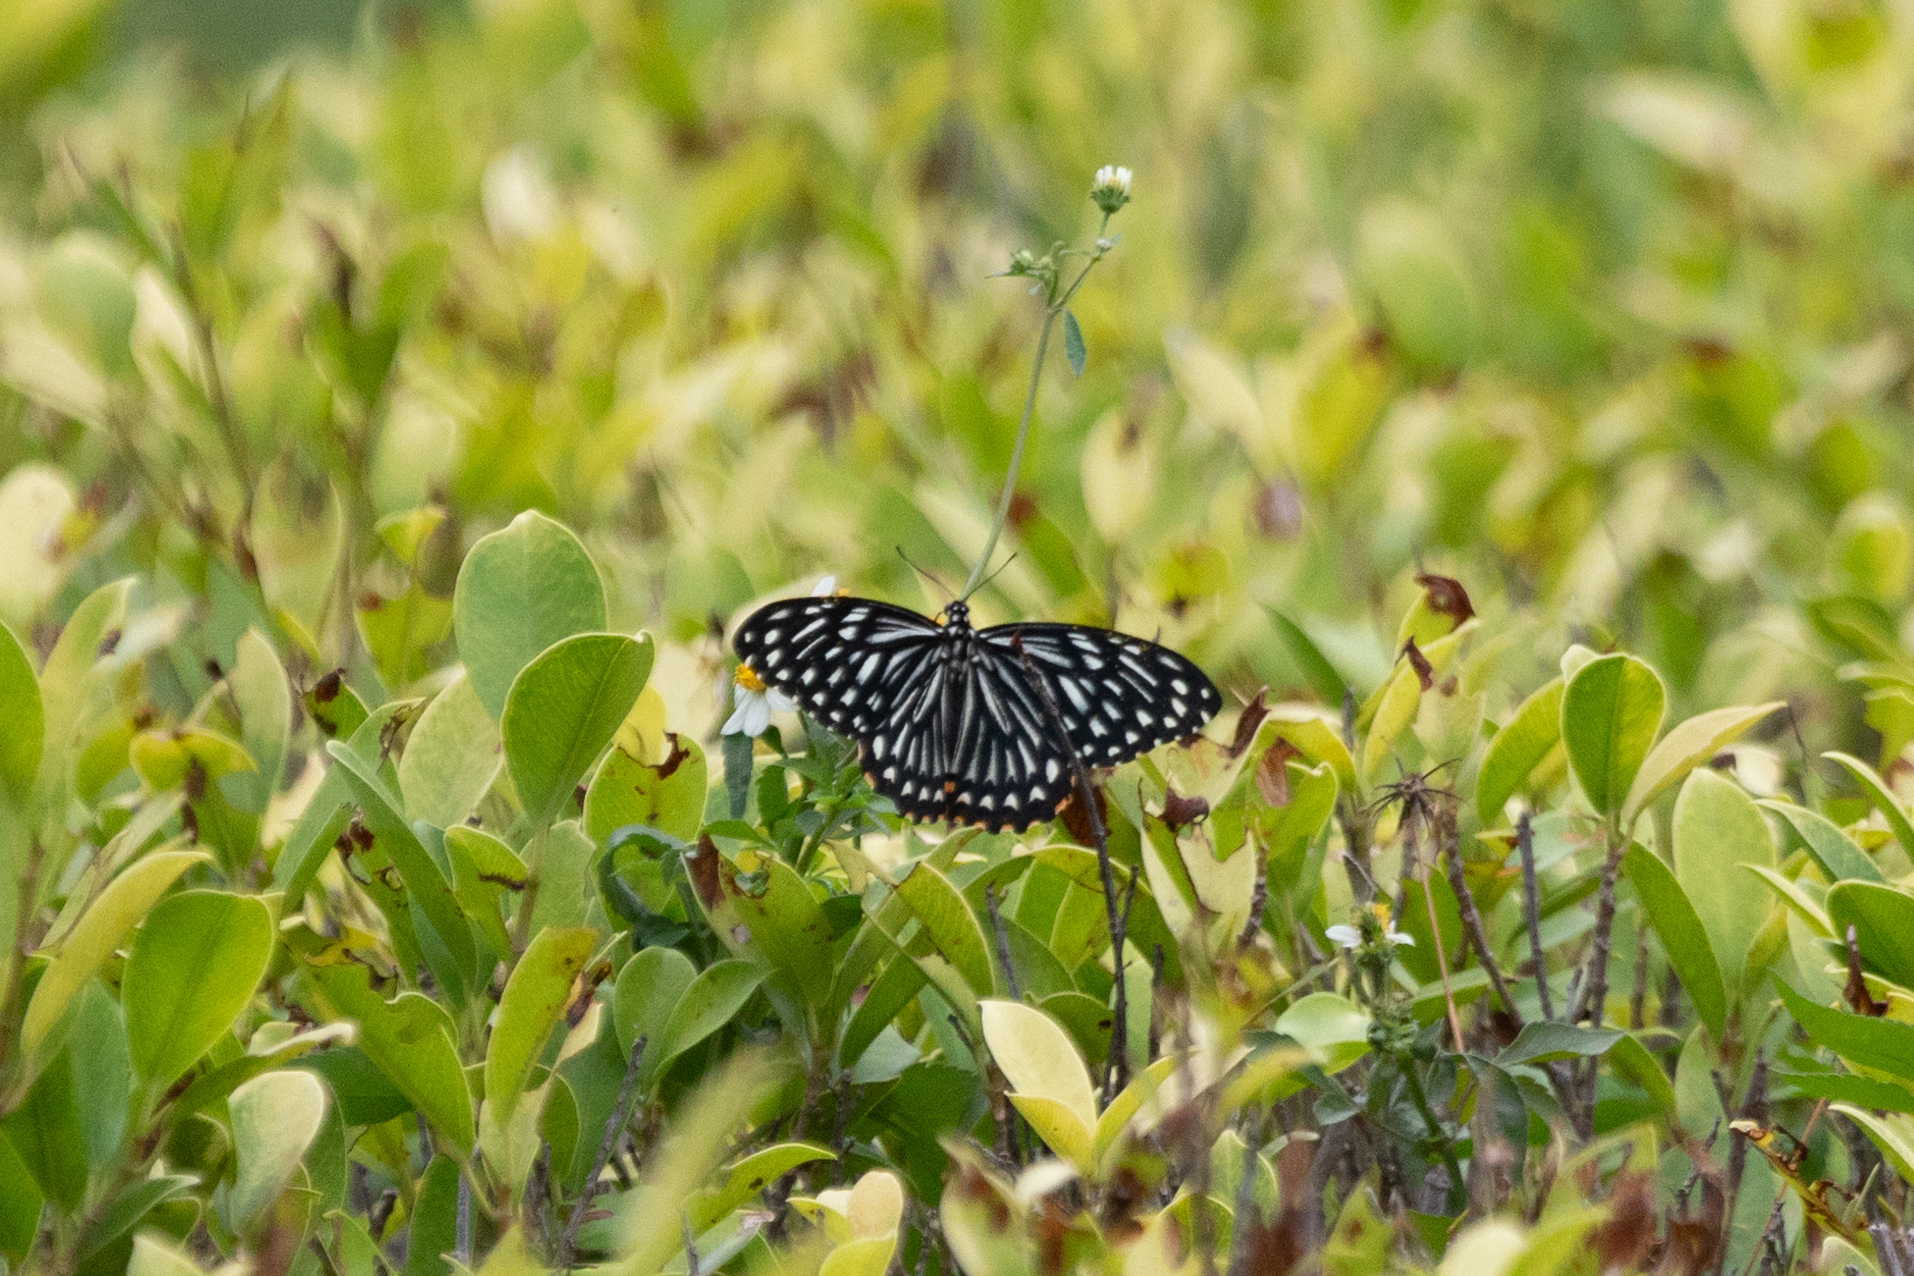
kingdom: Animalia
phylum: Arthropoda
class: Insecta
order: Lepidoptera
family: Papilionidae
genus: Chilasa
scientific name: Chilasa clytia
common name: Common mime
